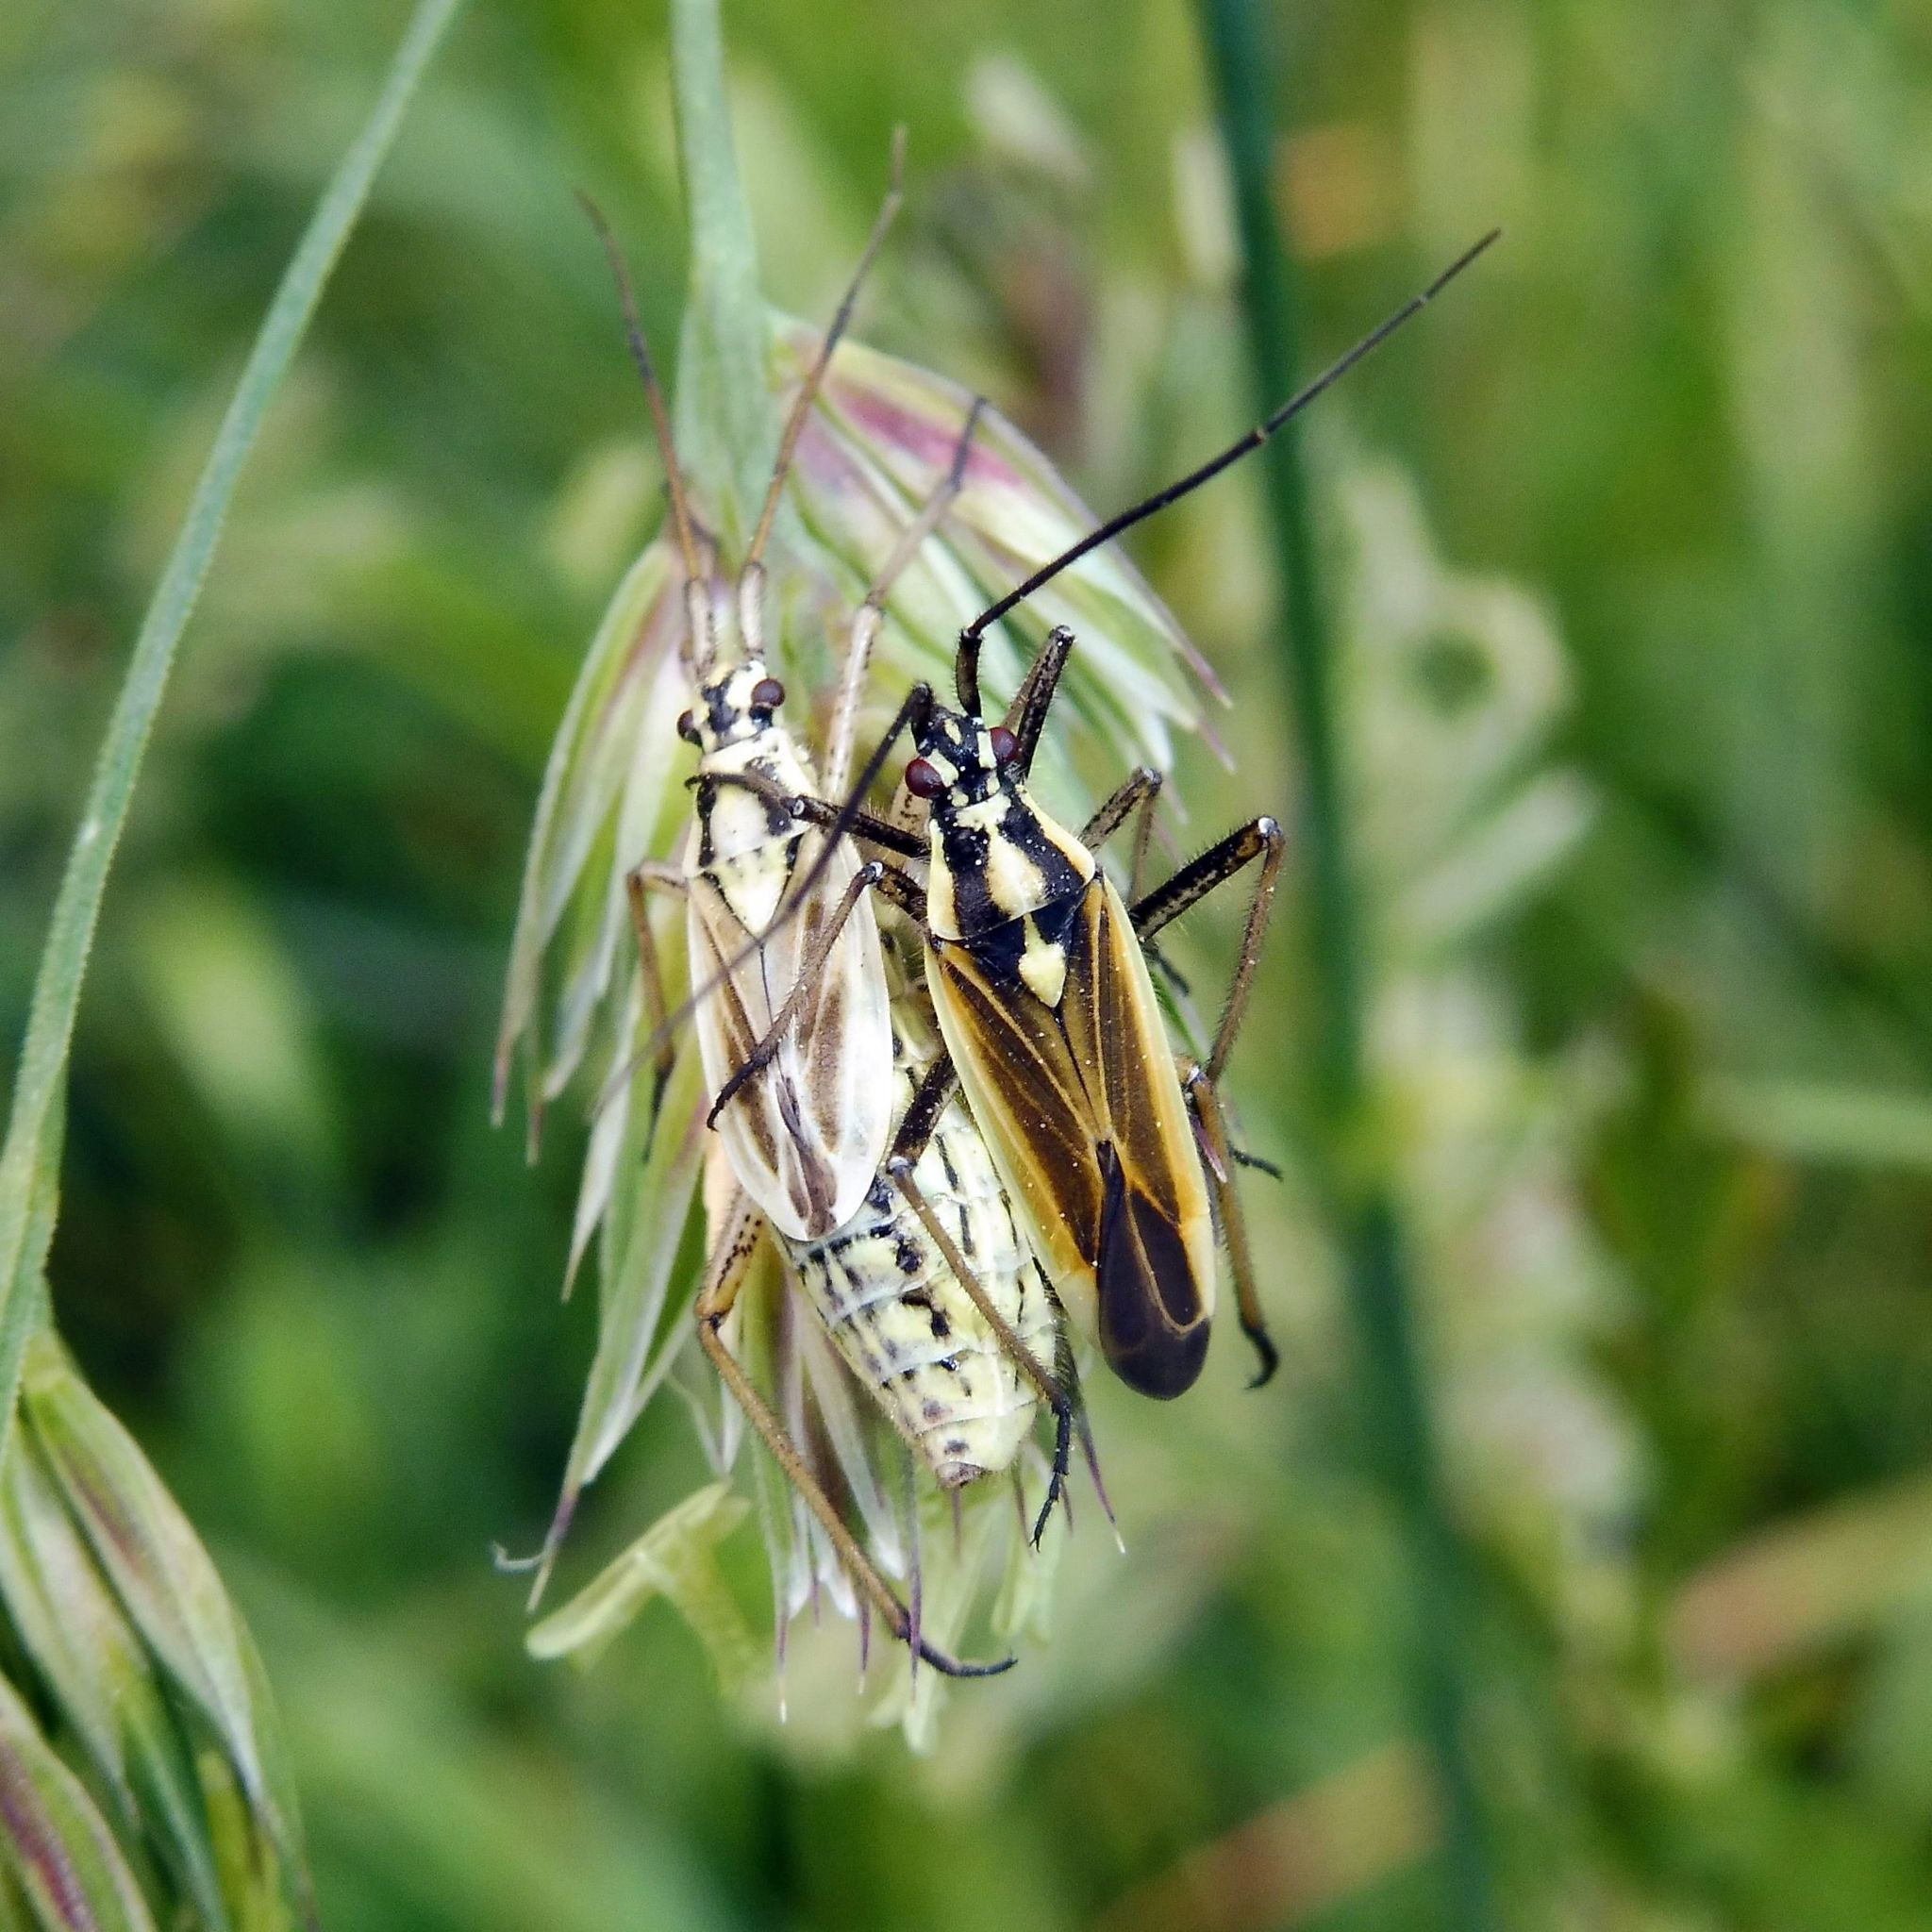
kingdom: Animalia
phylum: Arthropoda
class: Insecta
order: Hemiptera
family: Miridae
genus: Leptopterna
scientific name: Leptopterna dolabrata
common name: Meadow plant bug
